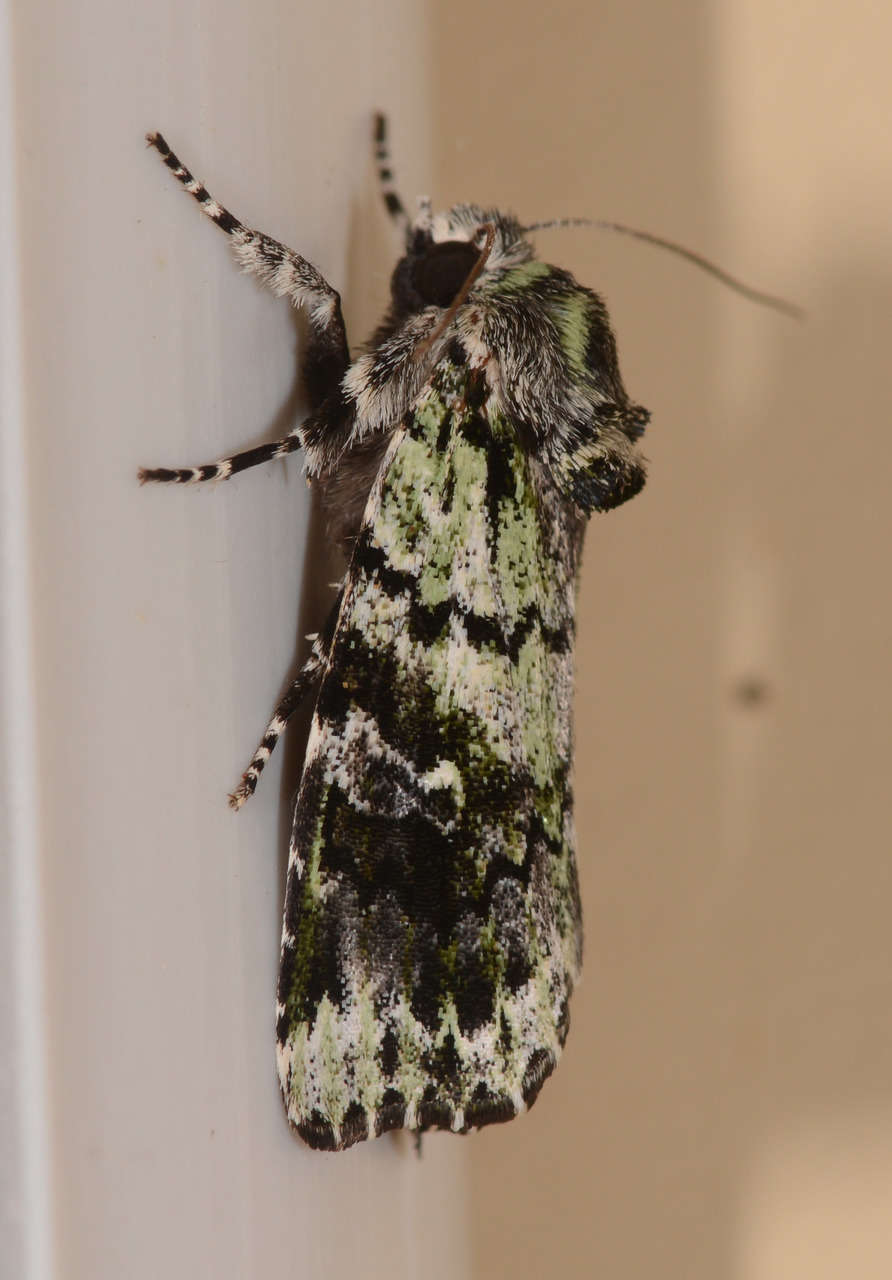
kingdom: Animalia
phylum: Arthropoda
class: Insecta
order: Lepidoptera
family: Noctuidae
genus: Prometopus
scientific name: Prometopus inassueta
